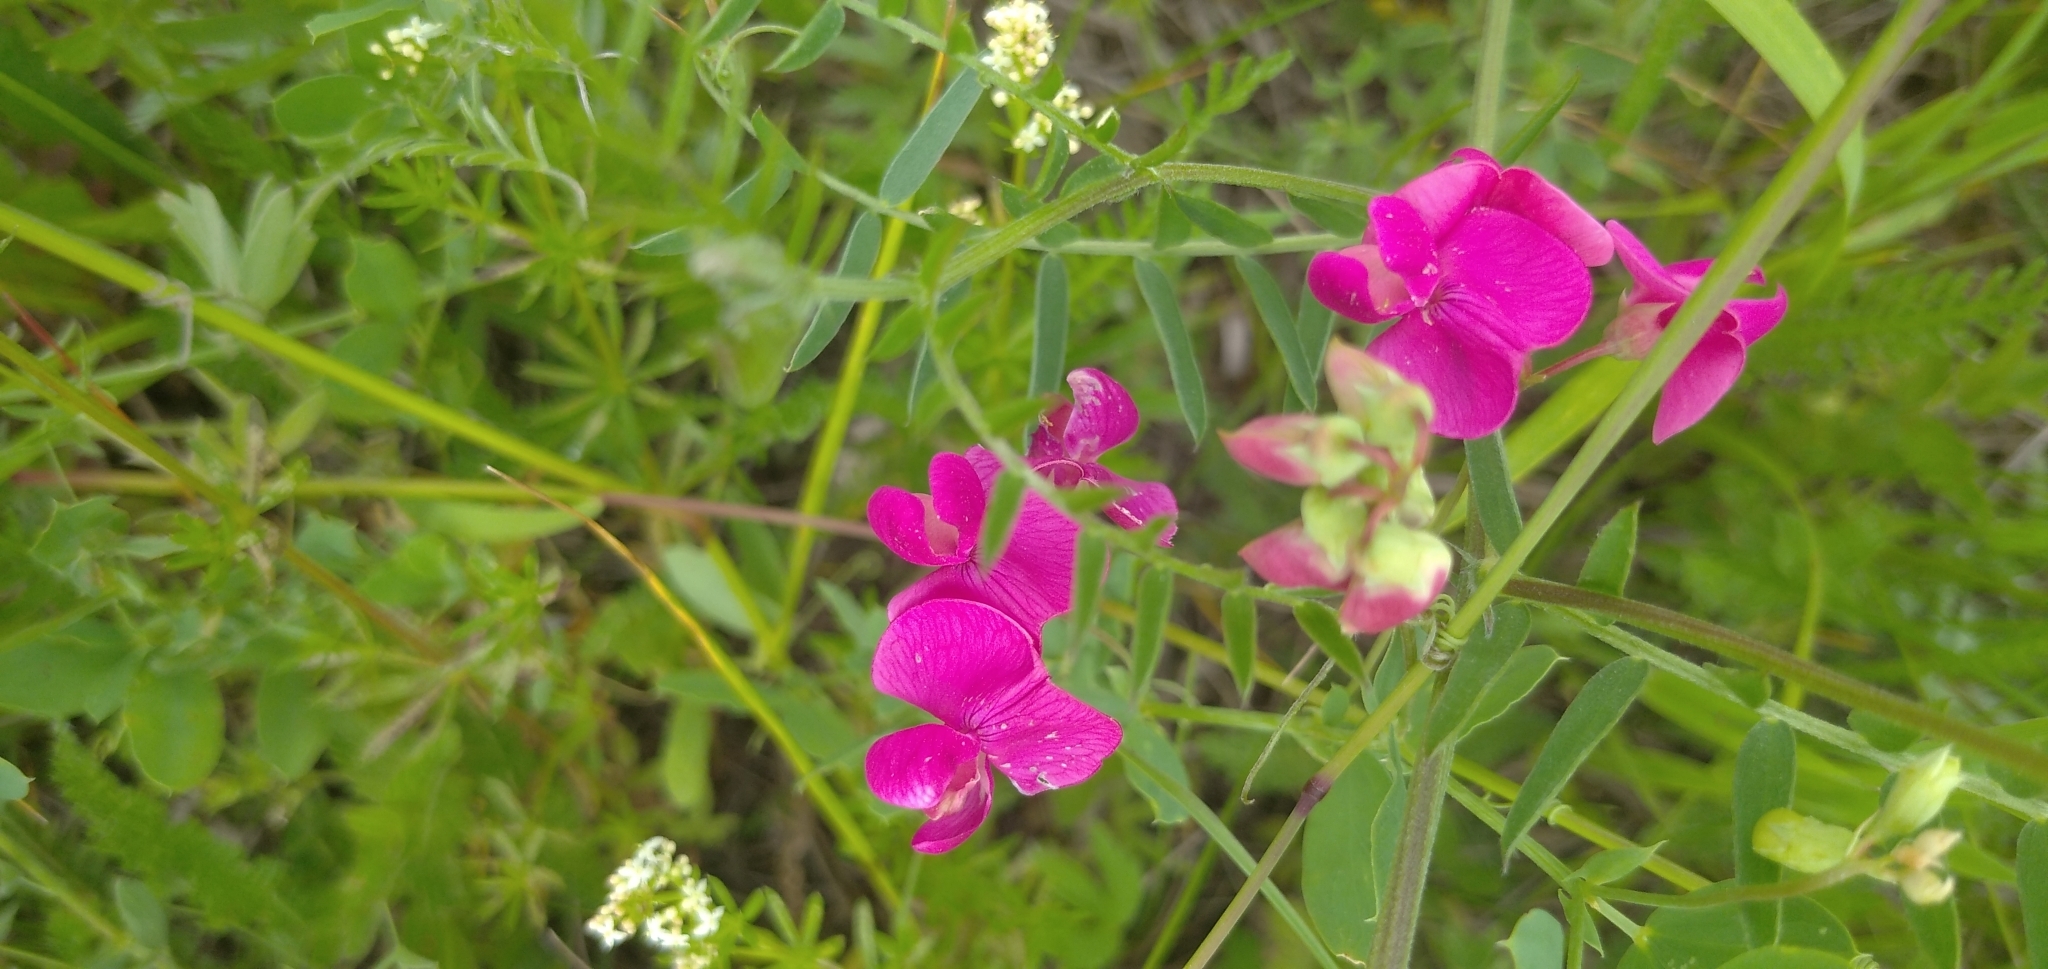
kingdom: Plantae
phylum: Tracheophyta
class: Magnoliopsida
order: Fabales
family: Fabaceae
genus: Lathyrus
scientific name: Lathyrus tuberosus
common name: Tuberous pea
